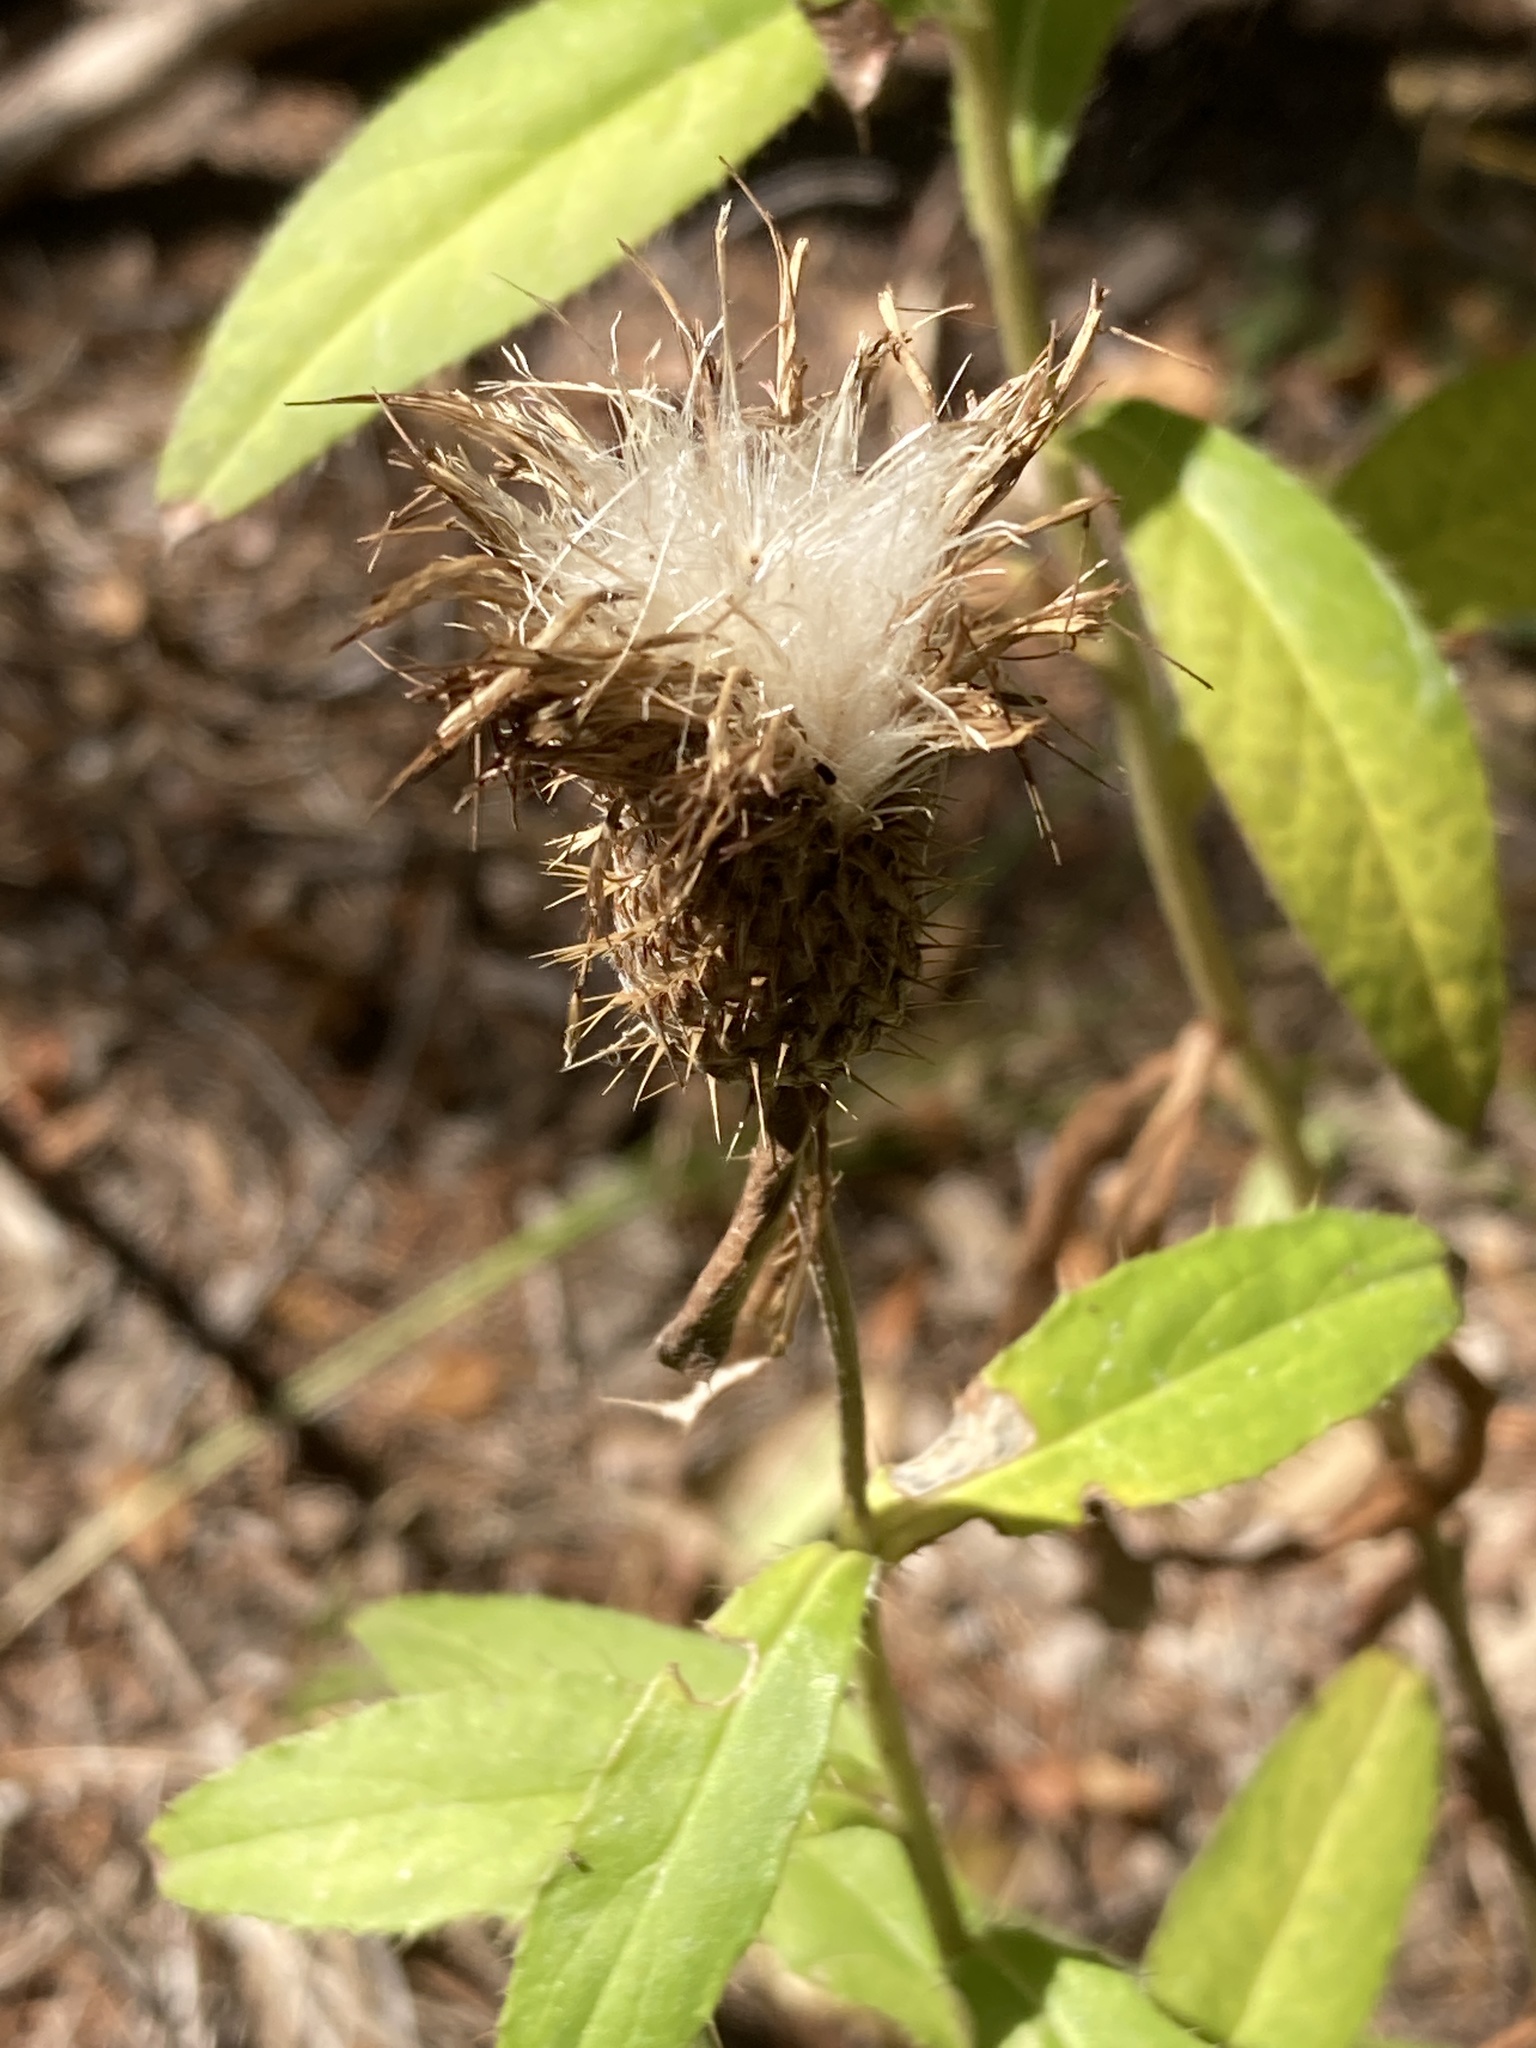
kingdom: Plantae
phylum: Tracheophyta
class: Magnoliopsida
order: Asterales
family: Asteraceae
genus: Cirsium
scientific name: Cirsium altissimum
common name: Roadside thistle
